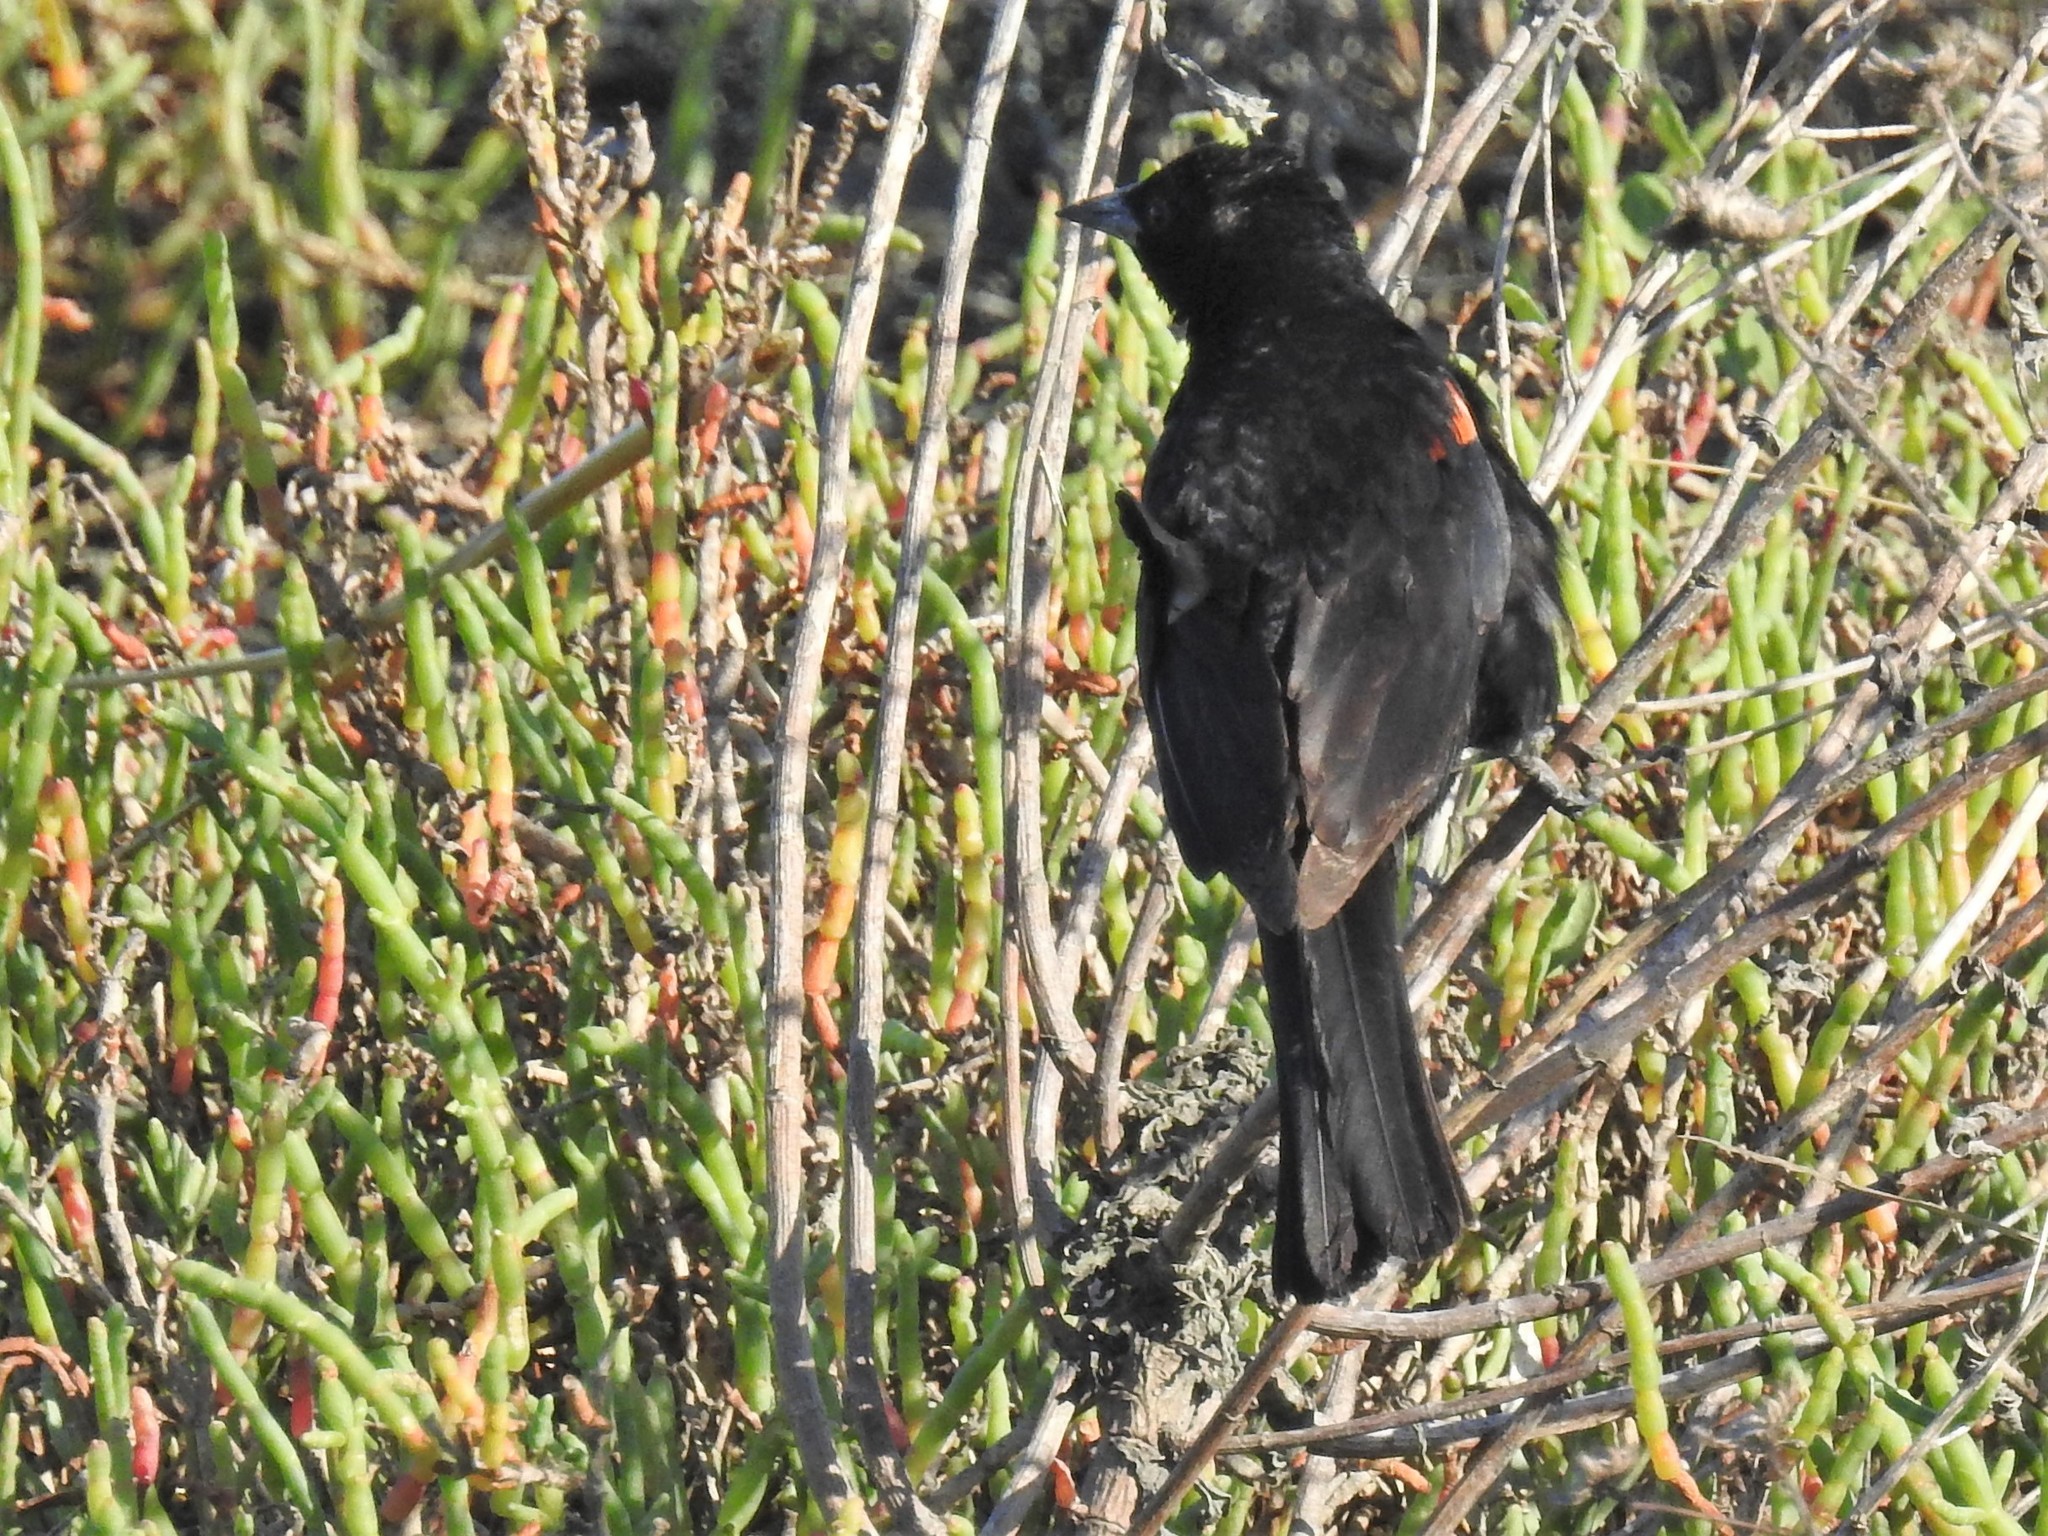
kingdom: Animalia
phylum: Chordata
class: Aves
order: Passeriformes
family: Icteridae
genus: Agelaius
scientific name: Agelaius phoeniceus
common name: Red-winged blackbird
